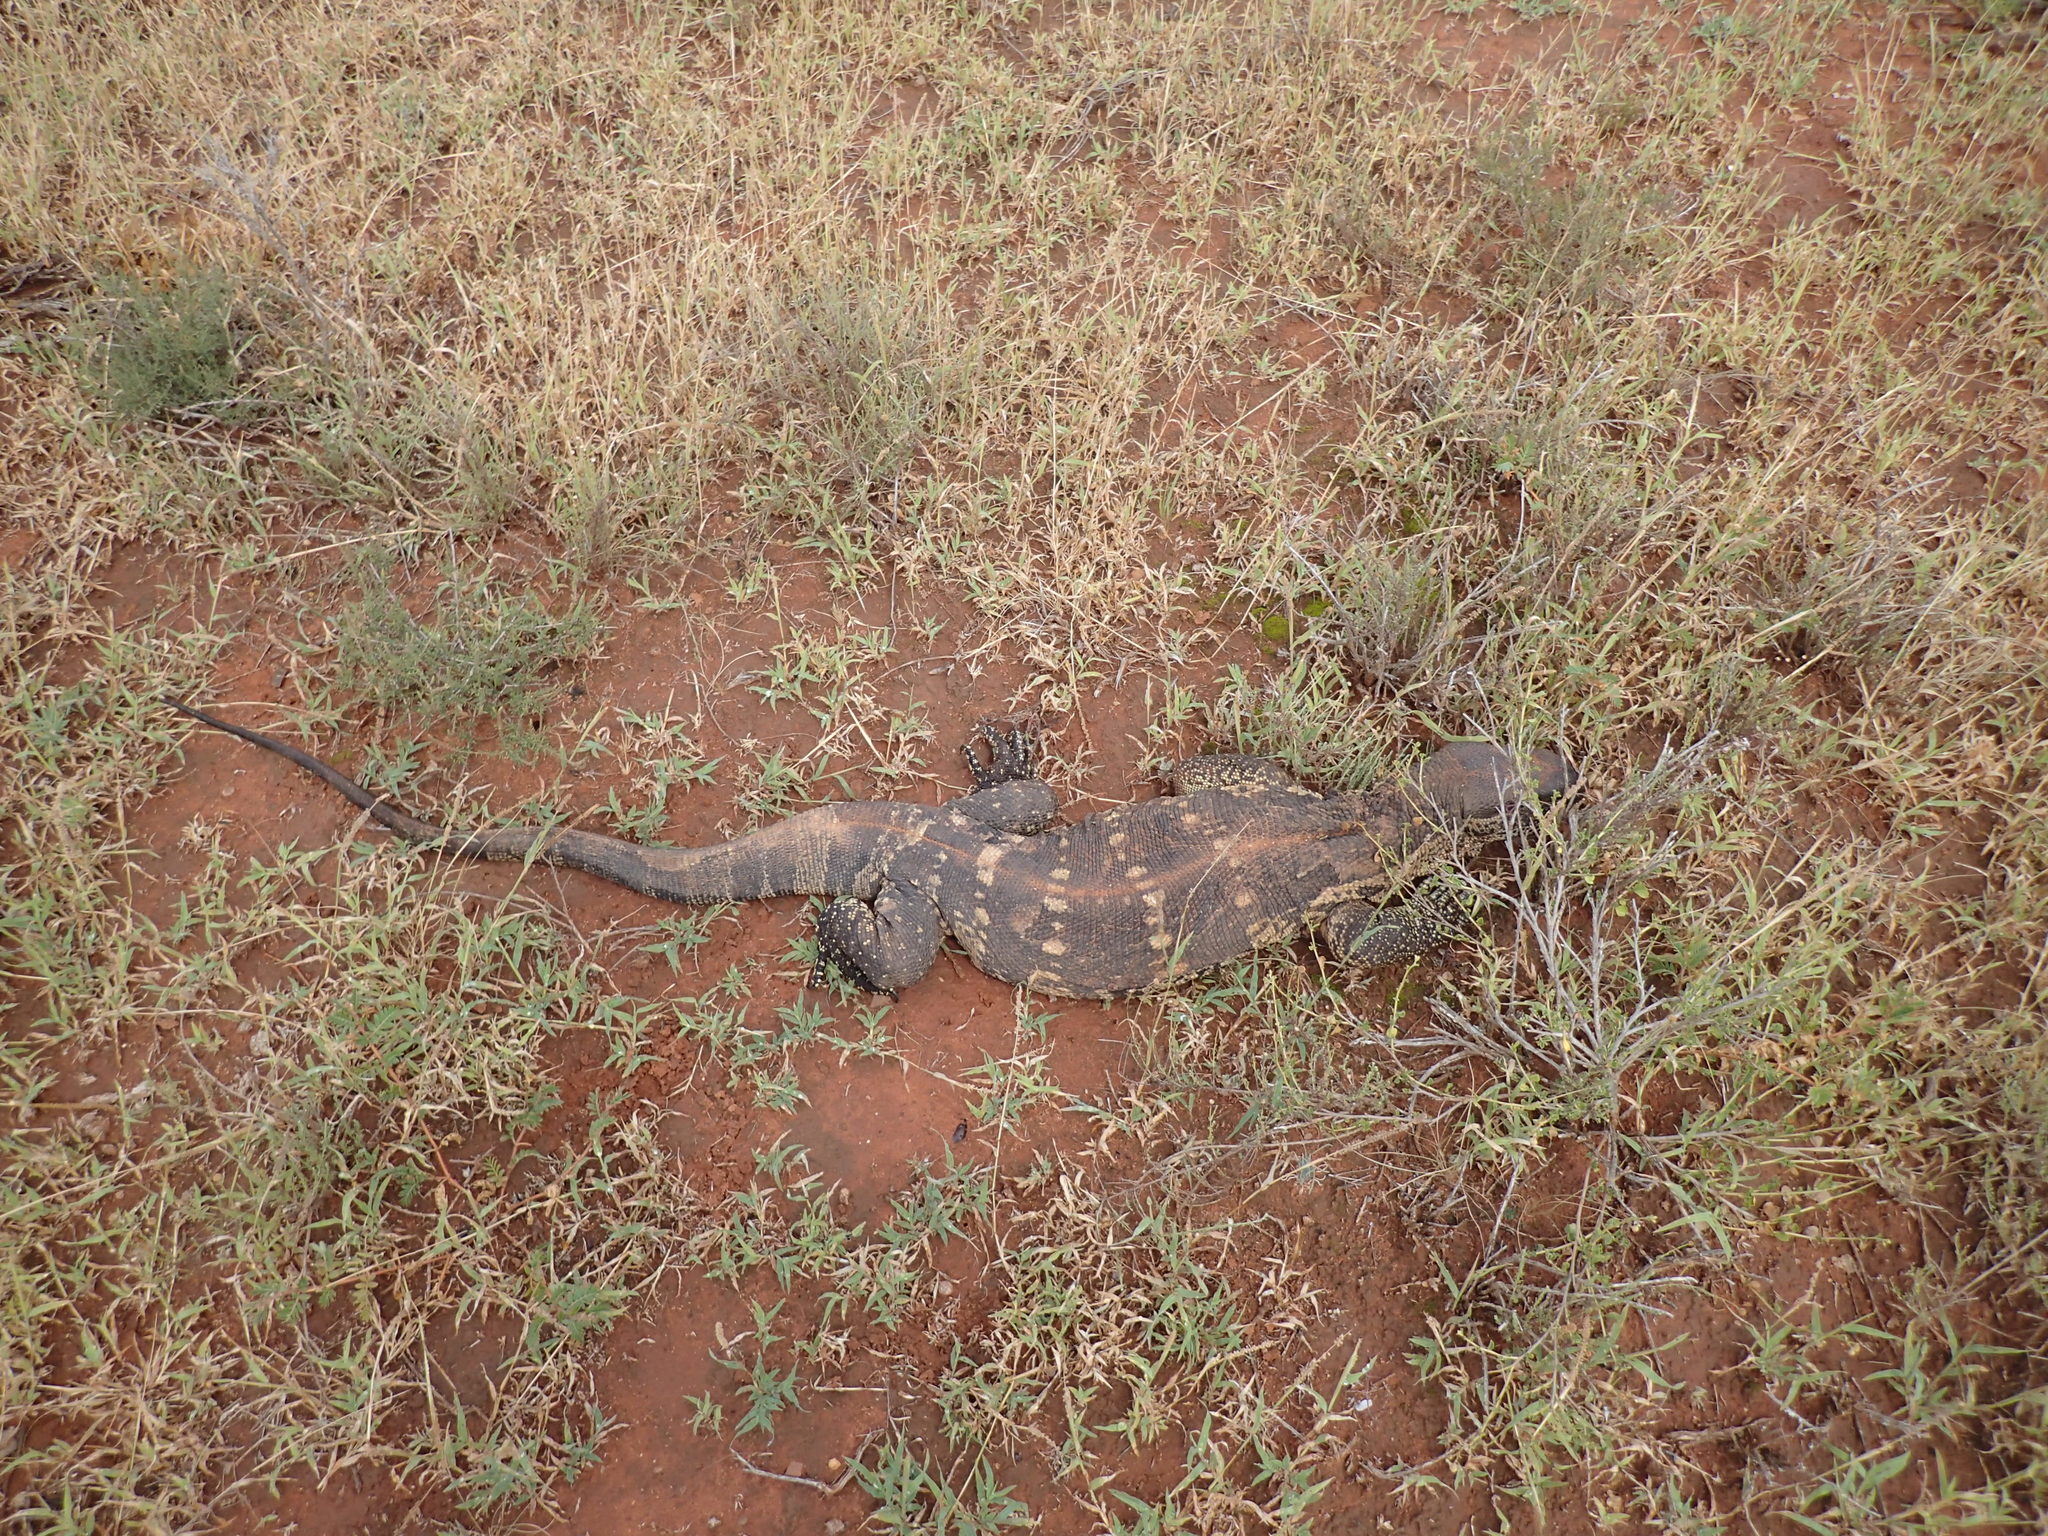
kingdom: Animalia
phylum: Chordata
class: Squamata
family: Varanidae
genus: Varanus
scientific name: Varanus albigularis
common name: White-throated monitor
